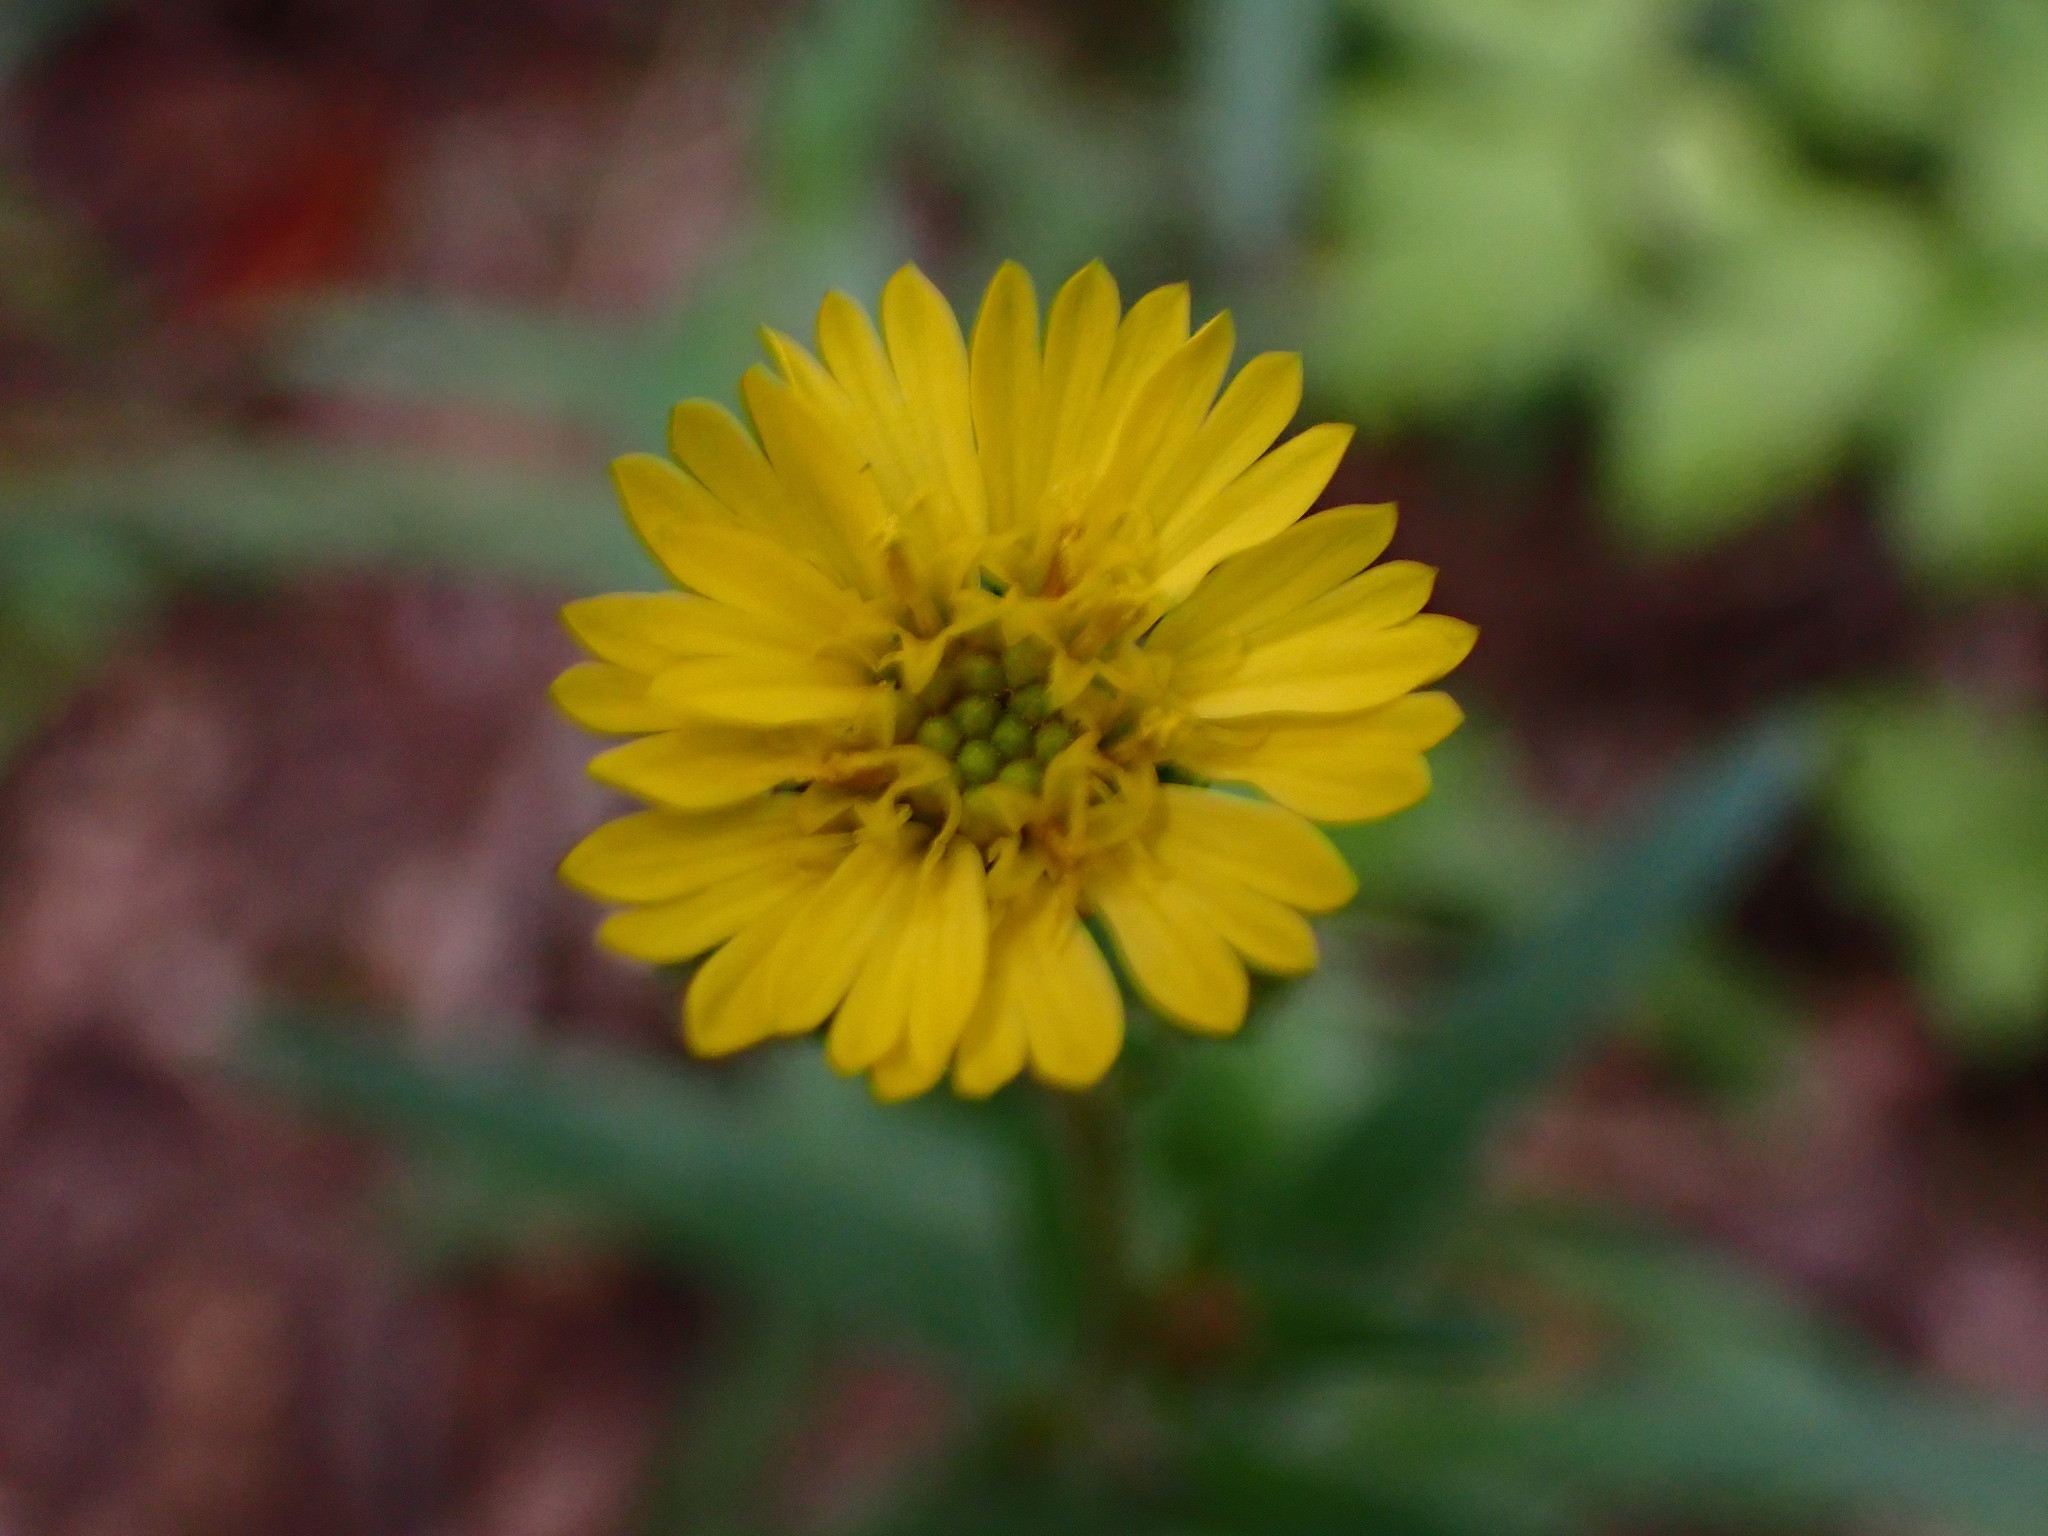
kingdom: Plantae
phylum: Tracheophyta
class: Magnoliopsida
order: Asterales
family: Asteraceae
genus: Anisocarpus
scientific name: Anisocarpus madioides
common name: Woodland madia
